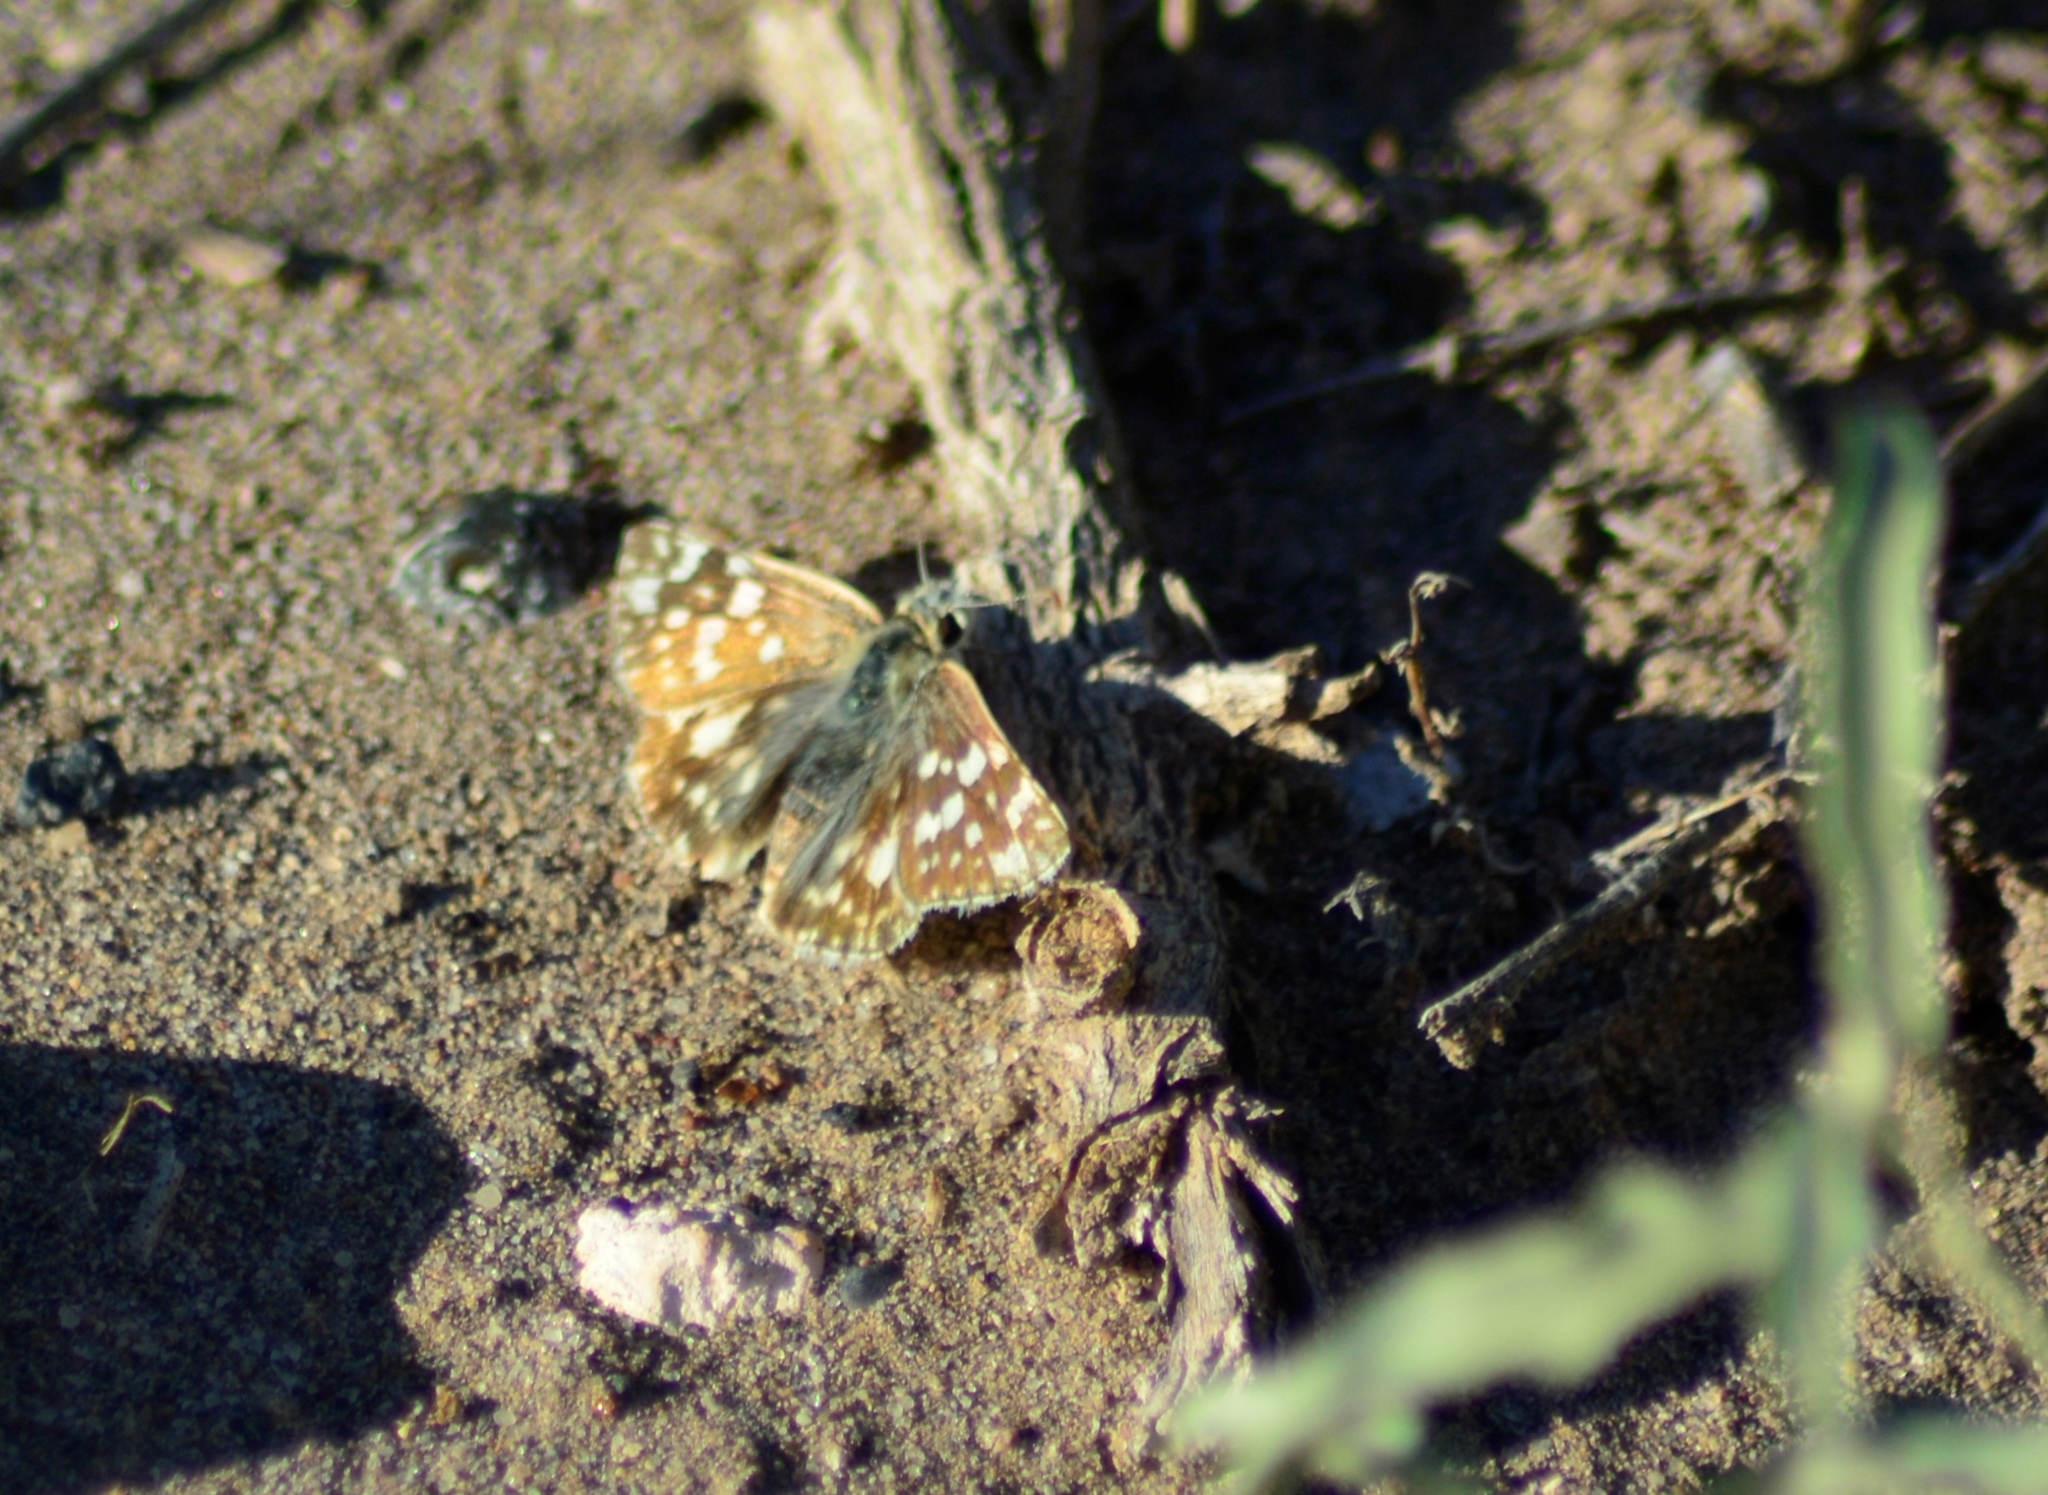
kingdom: Animalia
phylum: Arthropoda
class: Insecta
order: Lepidoptera
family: Hesperiidae
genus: Heliopetes
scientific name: Heliopetes americanus
